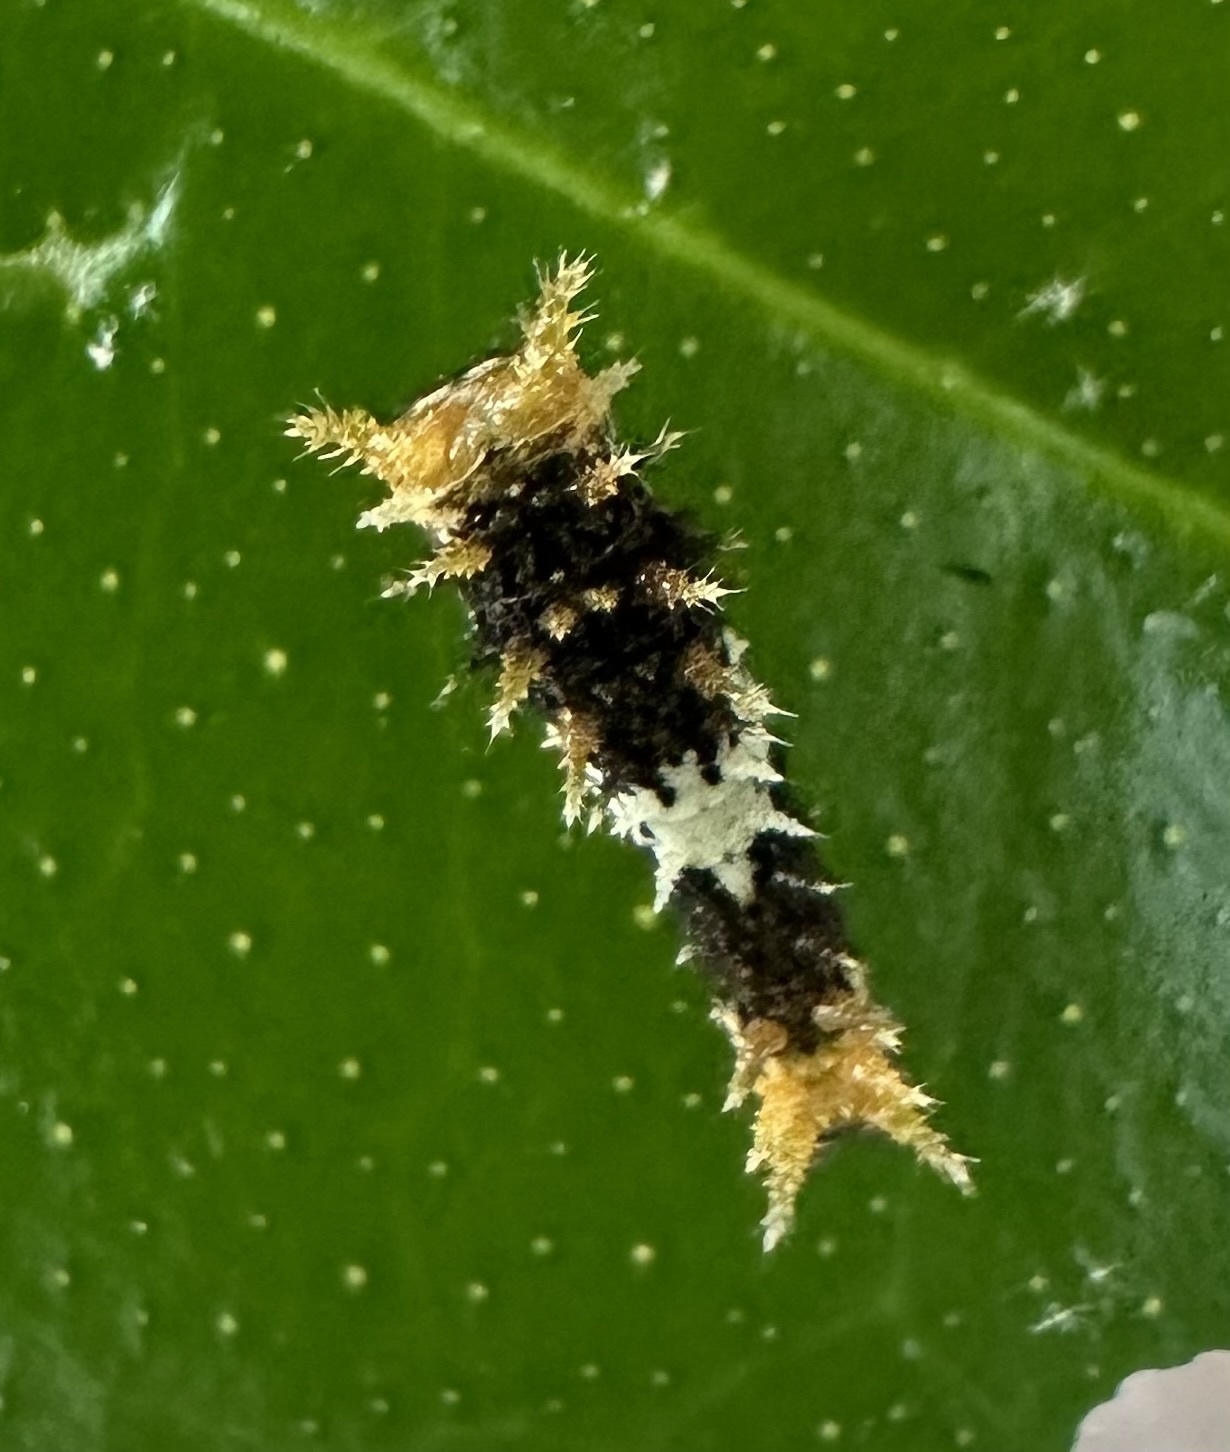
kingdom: Animalia
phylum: Arthropoda
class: Insecta
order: Lepidoptera
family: Papilionidae
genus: Papilio
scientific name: Papilio demodocus
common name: Christmas butterfly
